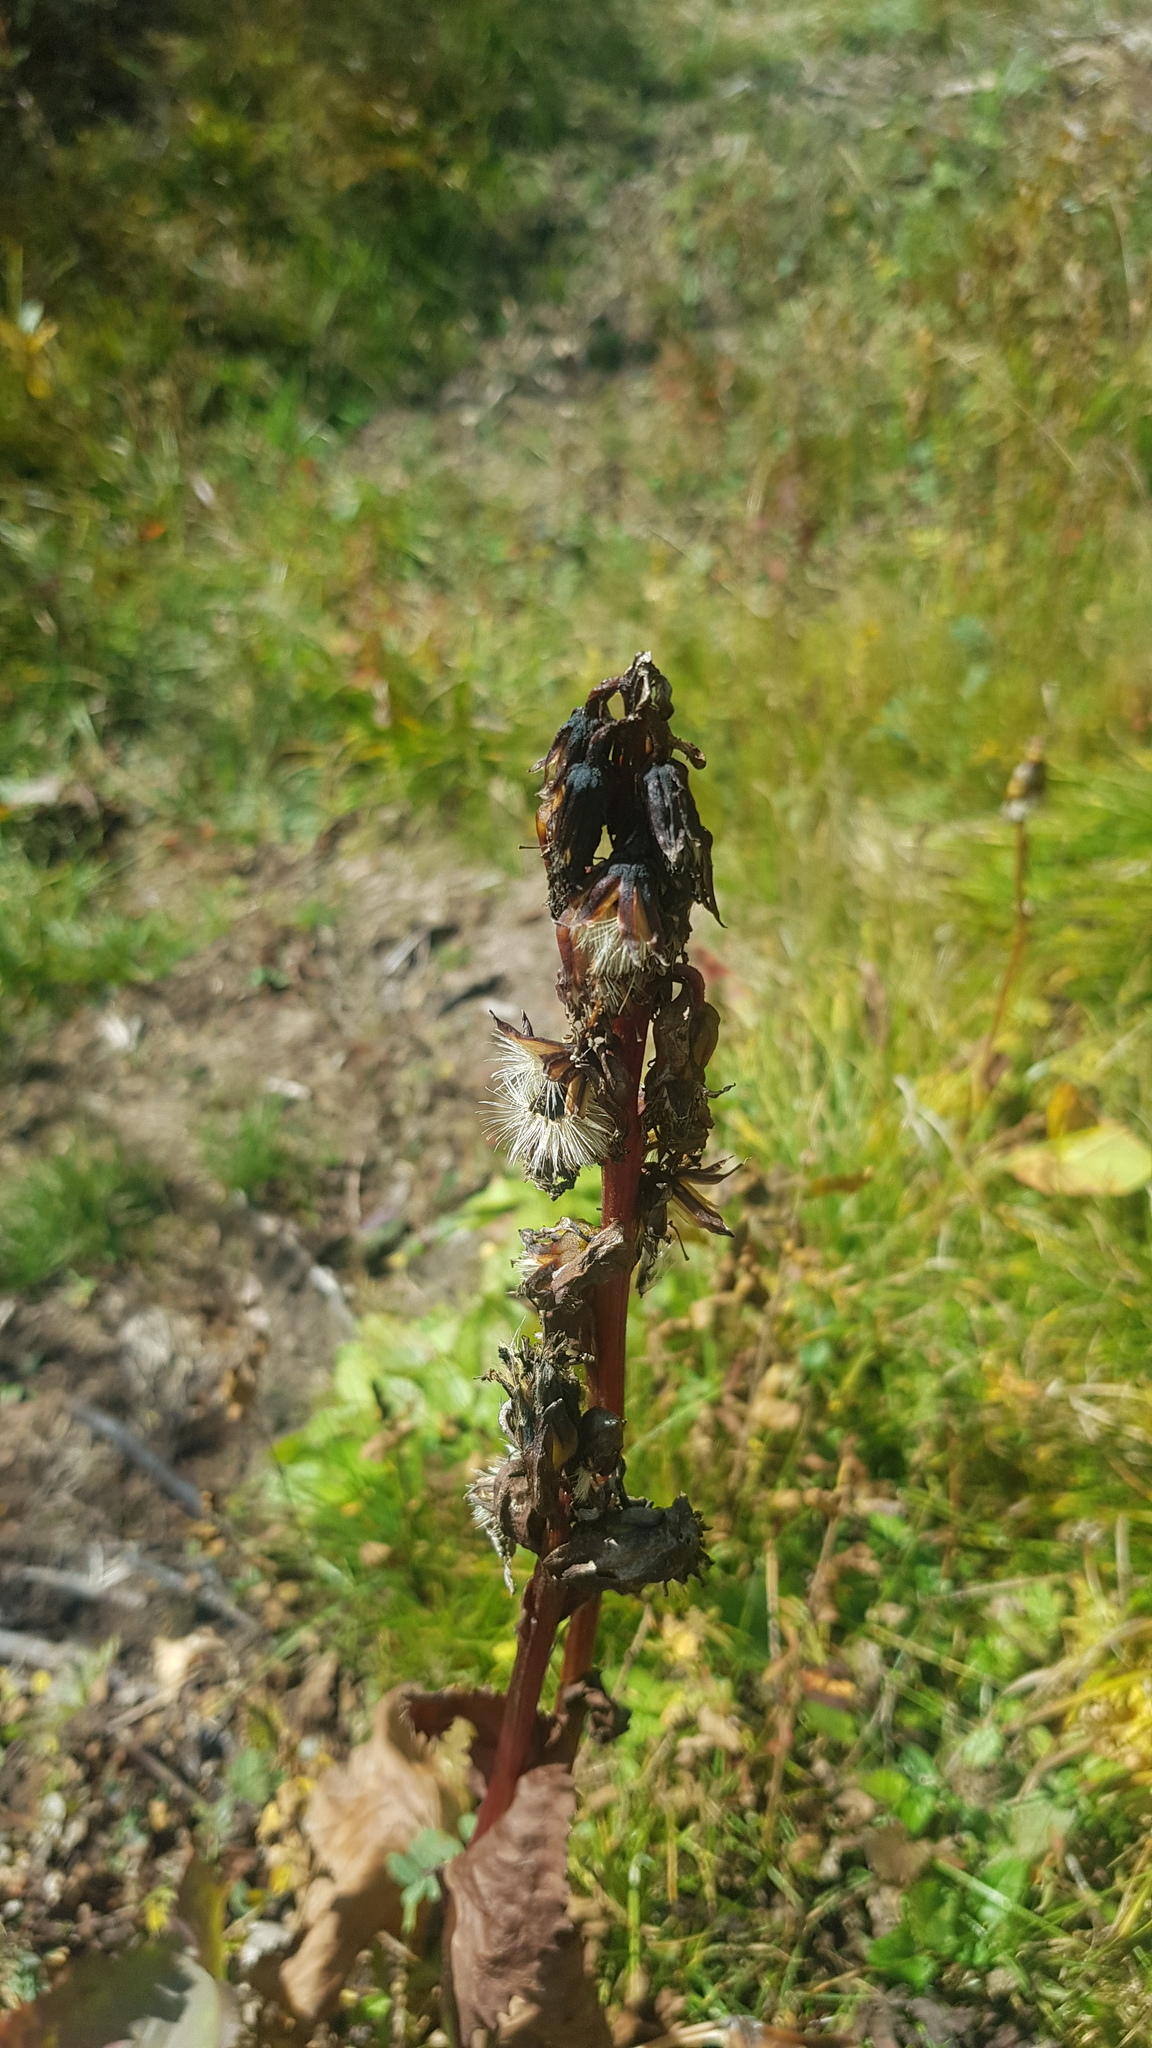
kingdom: Plantae
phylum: Tracheophyta
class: Magnoliopsida
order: Asterales
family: Asteraceae
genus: Ligularia
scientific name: Ligularia sibirica
